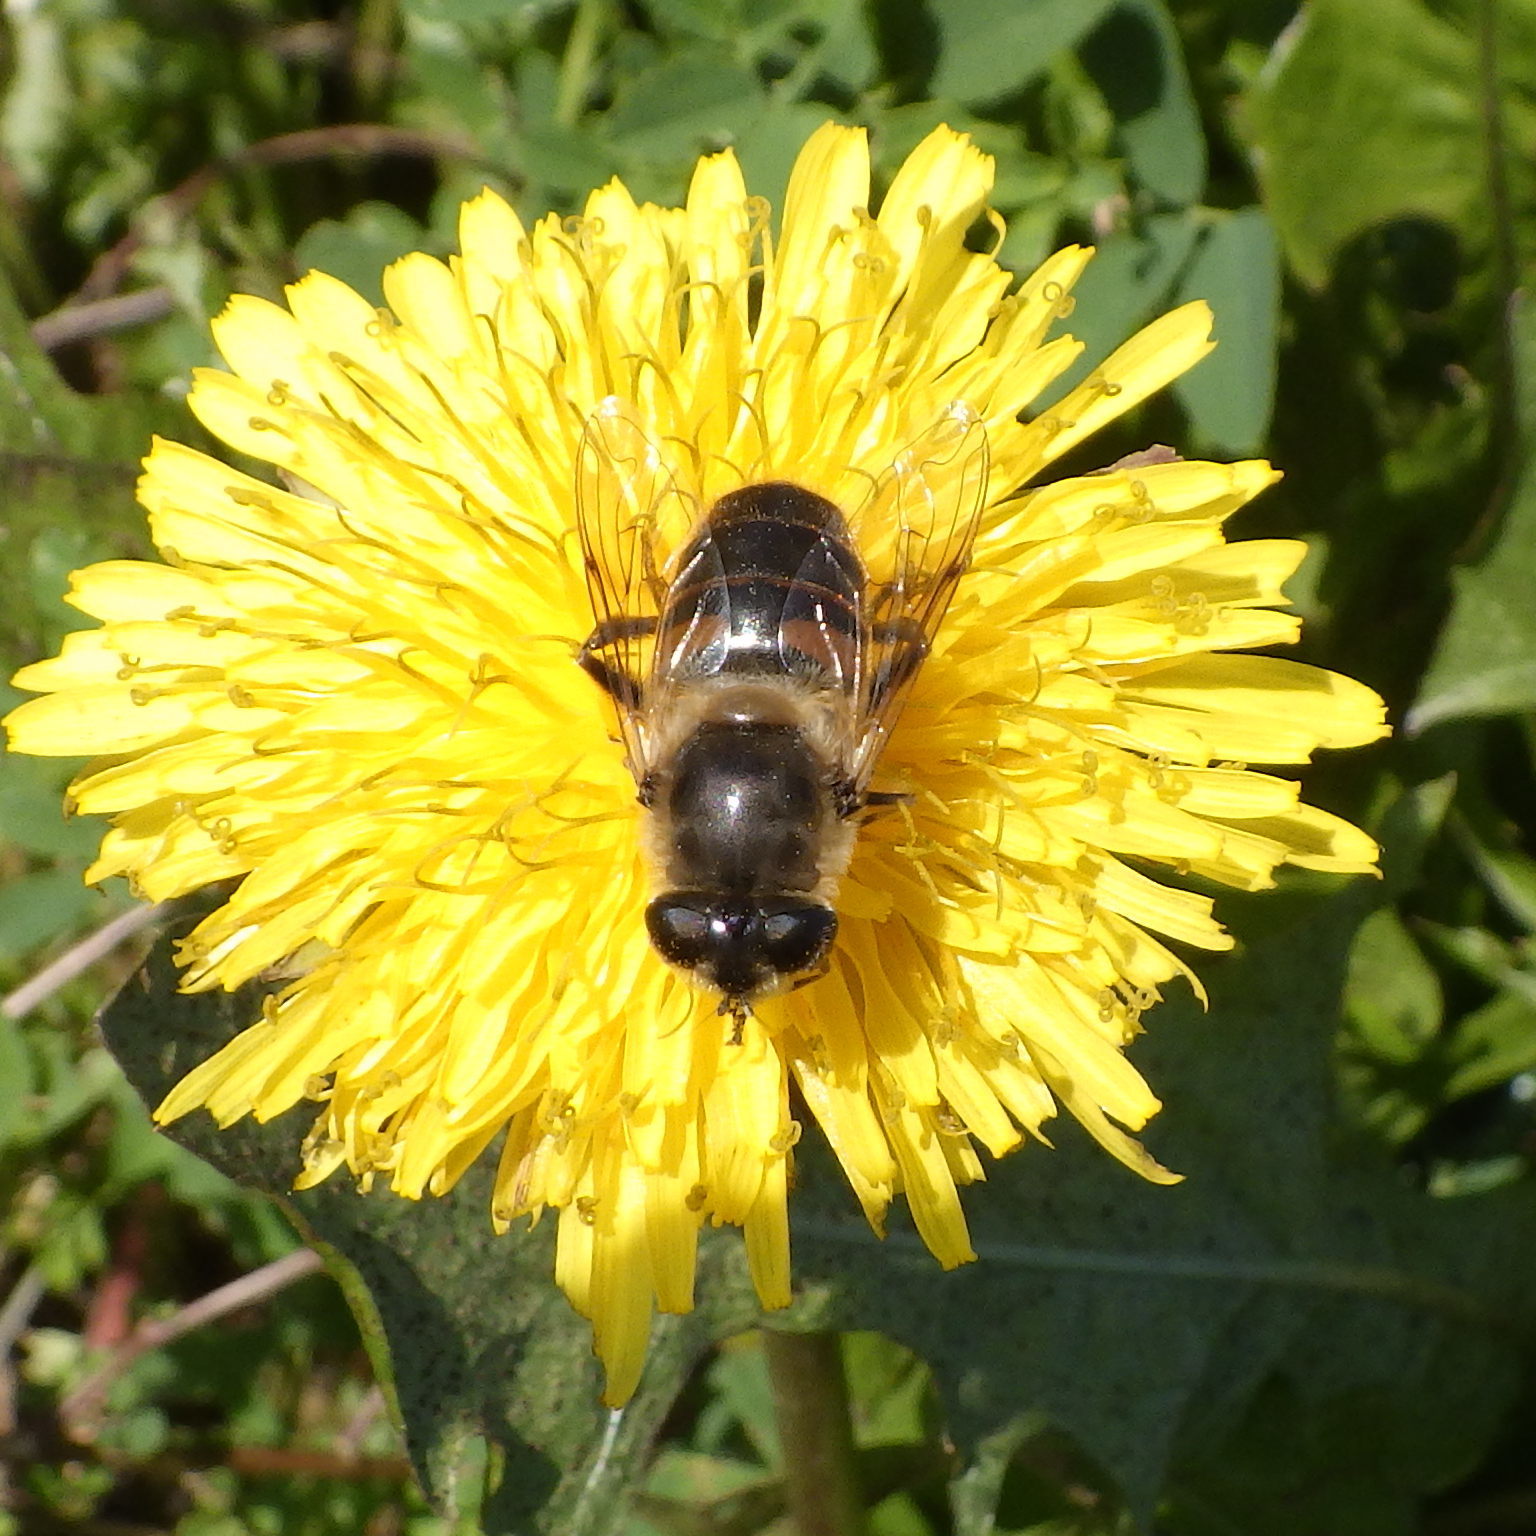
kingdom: Animalia
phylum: Arthropoda
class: Insecta
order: Diptera
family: Syrphidae
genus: Eristalis
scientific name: Eristalis tenax
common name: Drone fly
